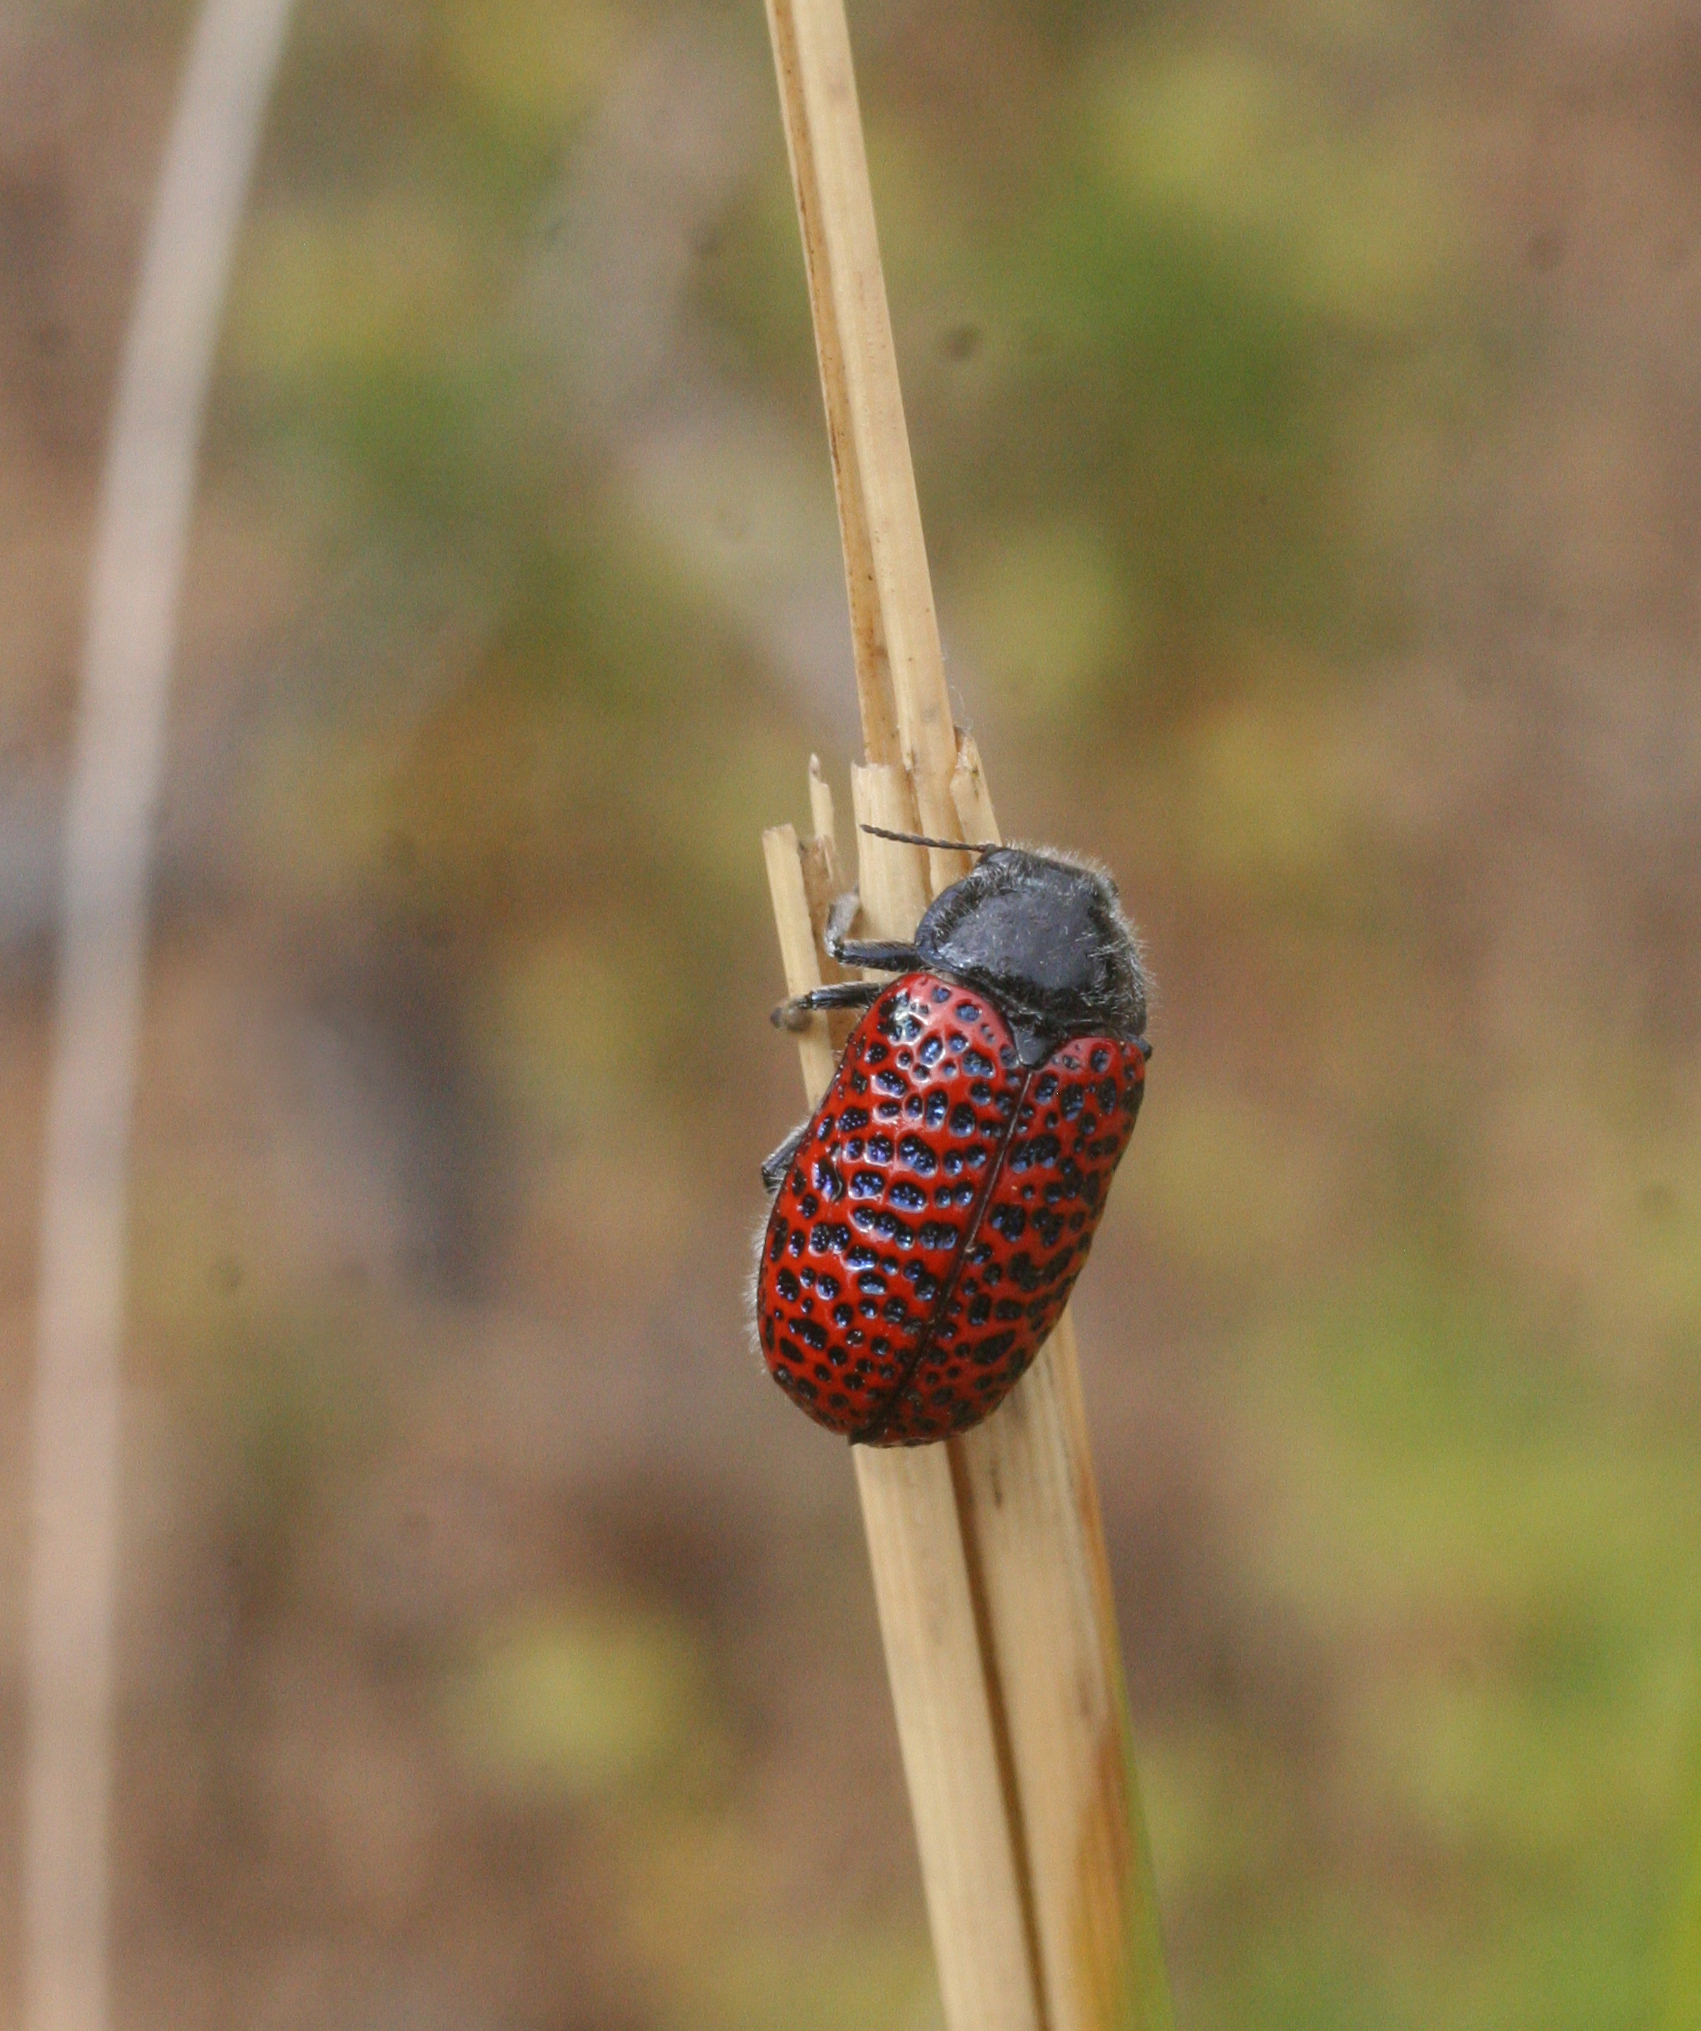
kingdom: Animalia
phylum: Arthropoda
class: Insecta
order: Coleoptera
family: Chrysomelidae
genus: Lachnaia
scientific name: Lachnaia variolosa
